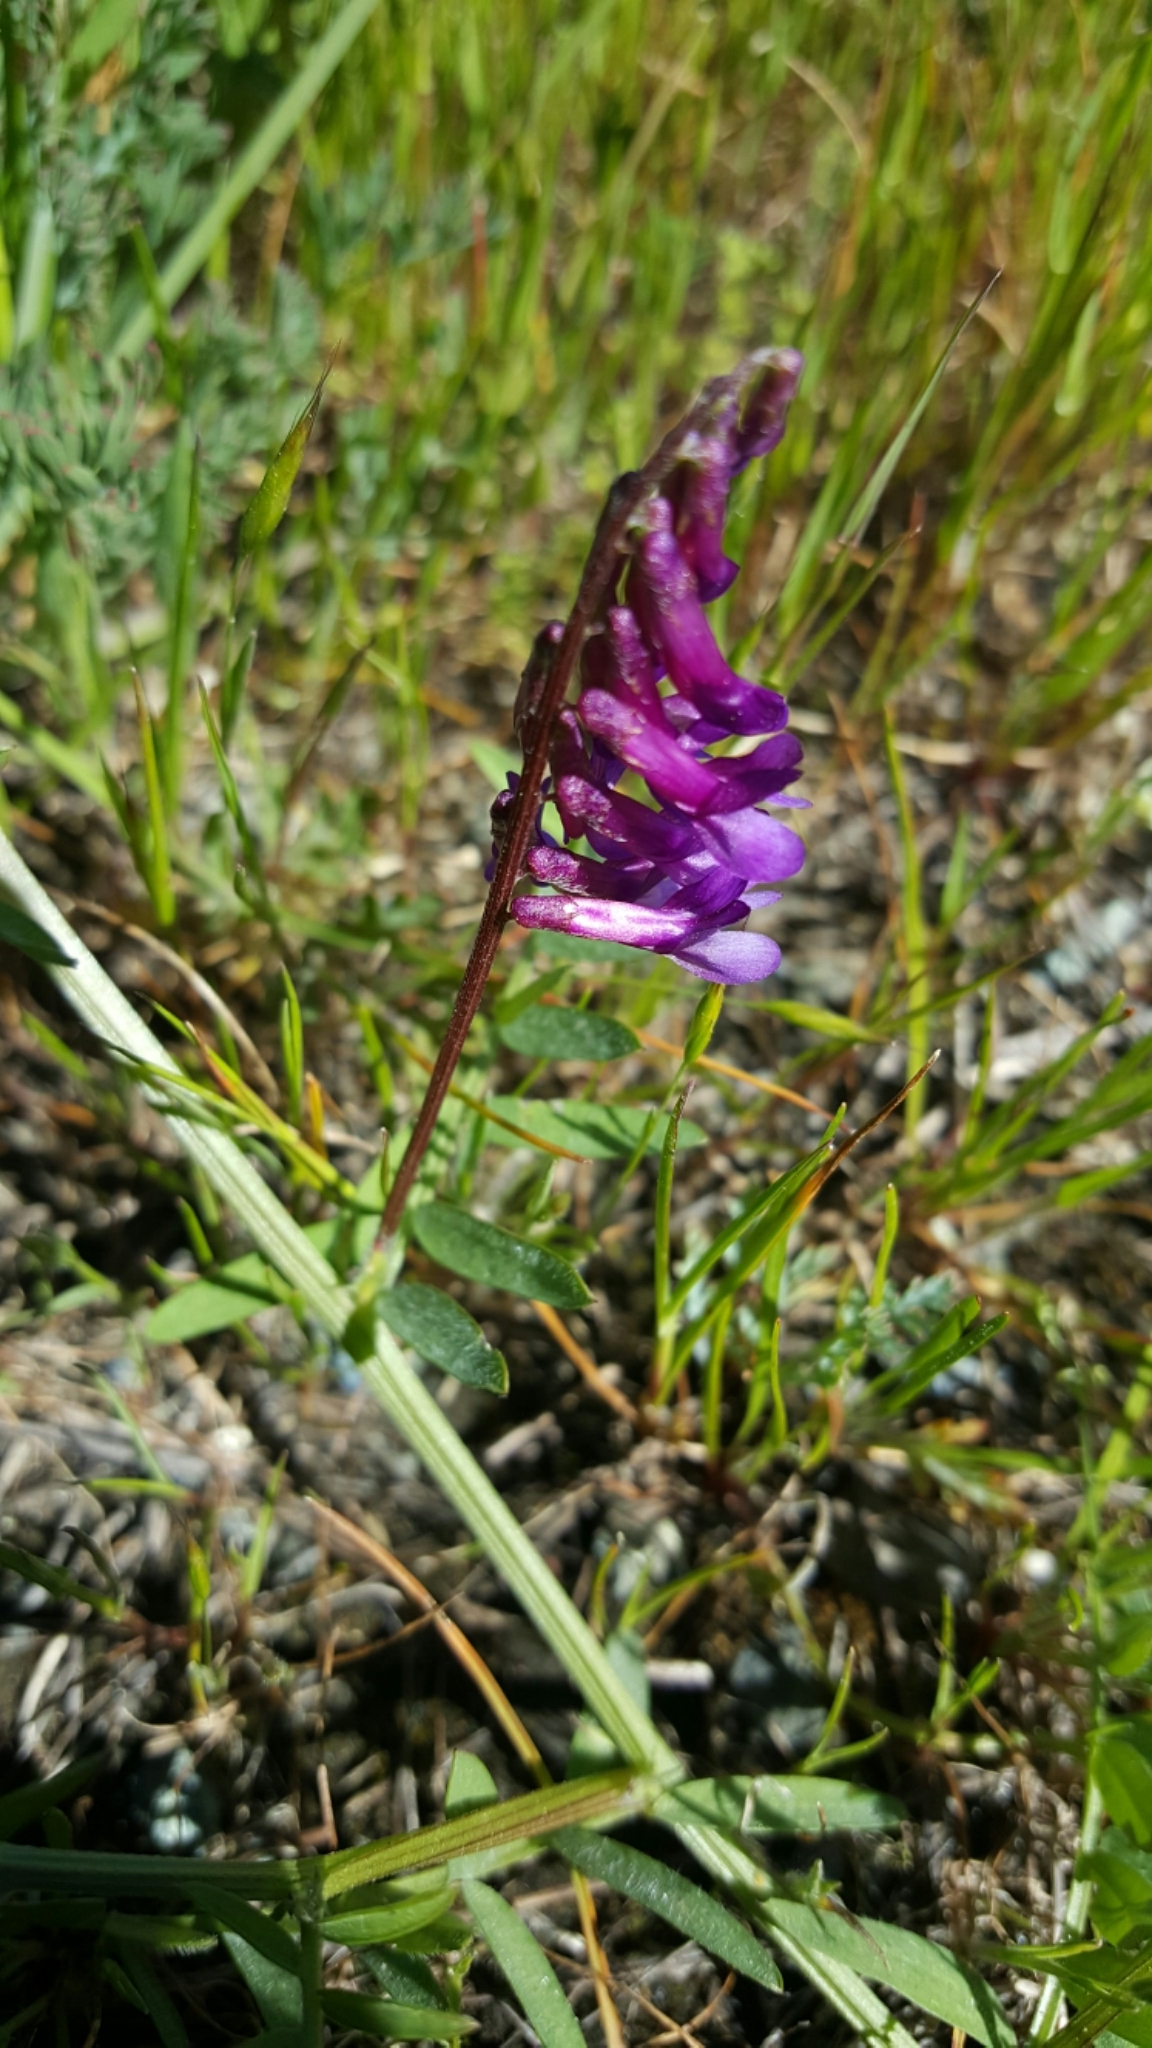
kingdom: Plantae
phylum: Tracheophyta
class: Magnoliopsida
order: Fabales
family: Fabaceae
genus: Vicia
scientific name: Vicia villosa
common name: Fodder vetch
